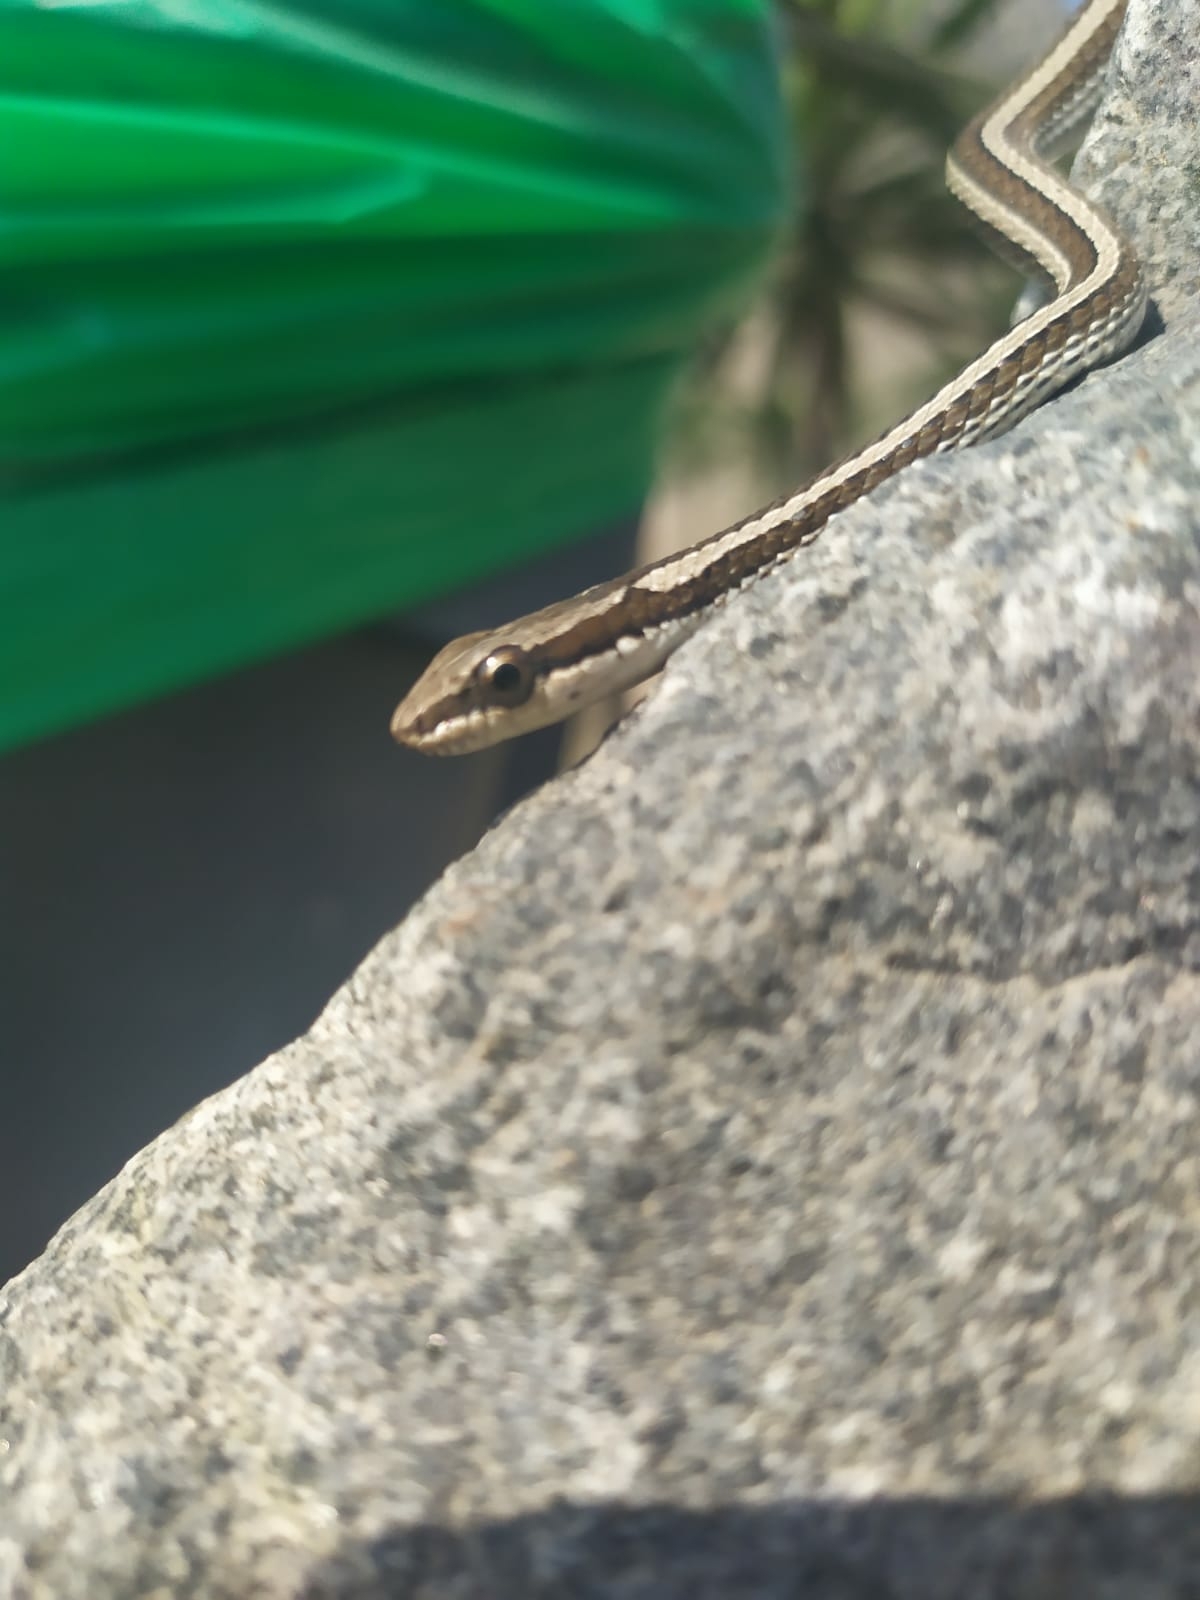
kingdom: Animalia
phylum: Chordata
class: Squamata
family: Colubridae
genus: Pseudalsophis
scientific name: Pseudalsophis elegans
